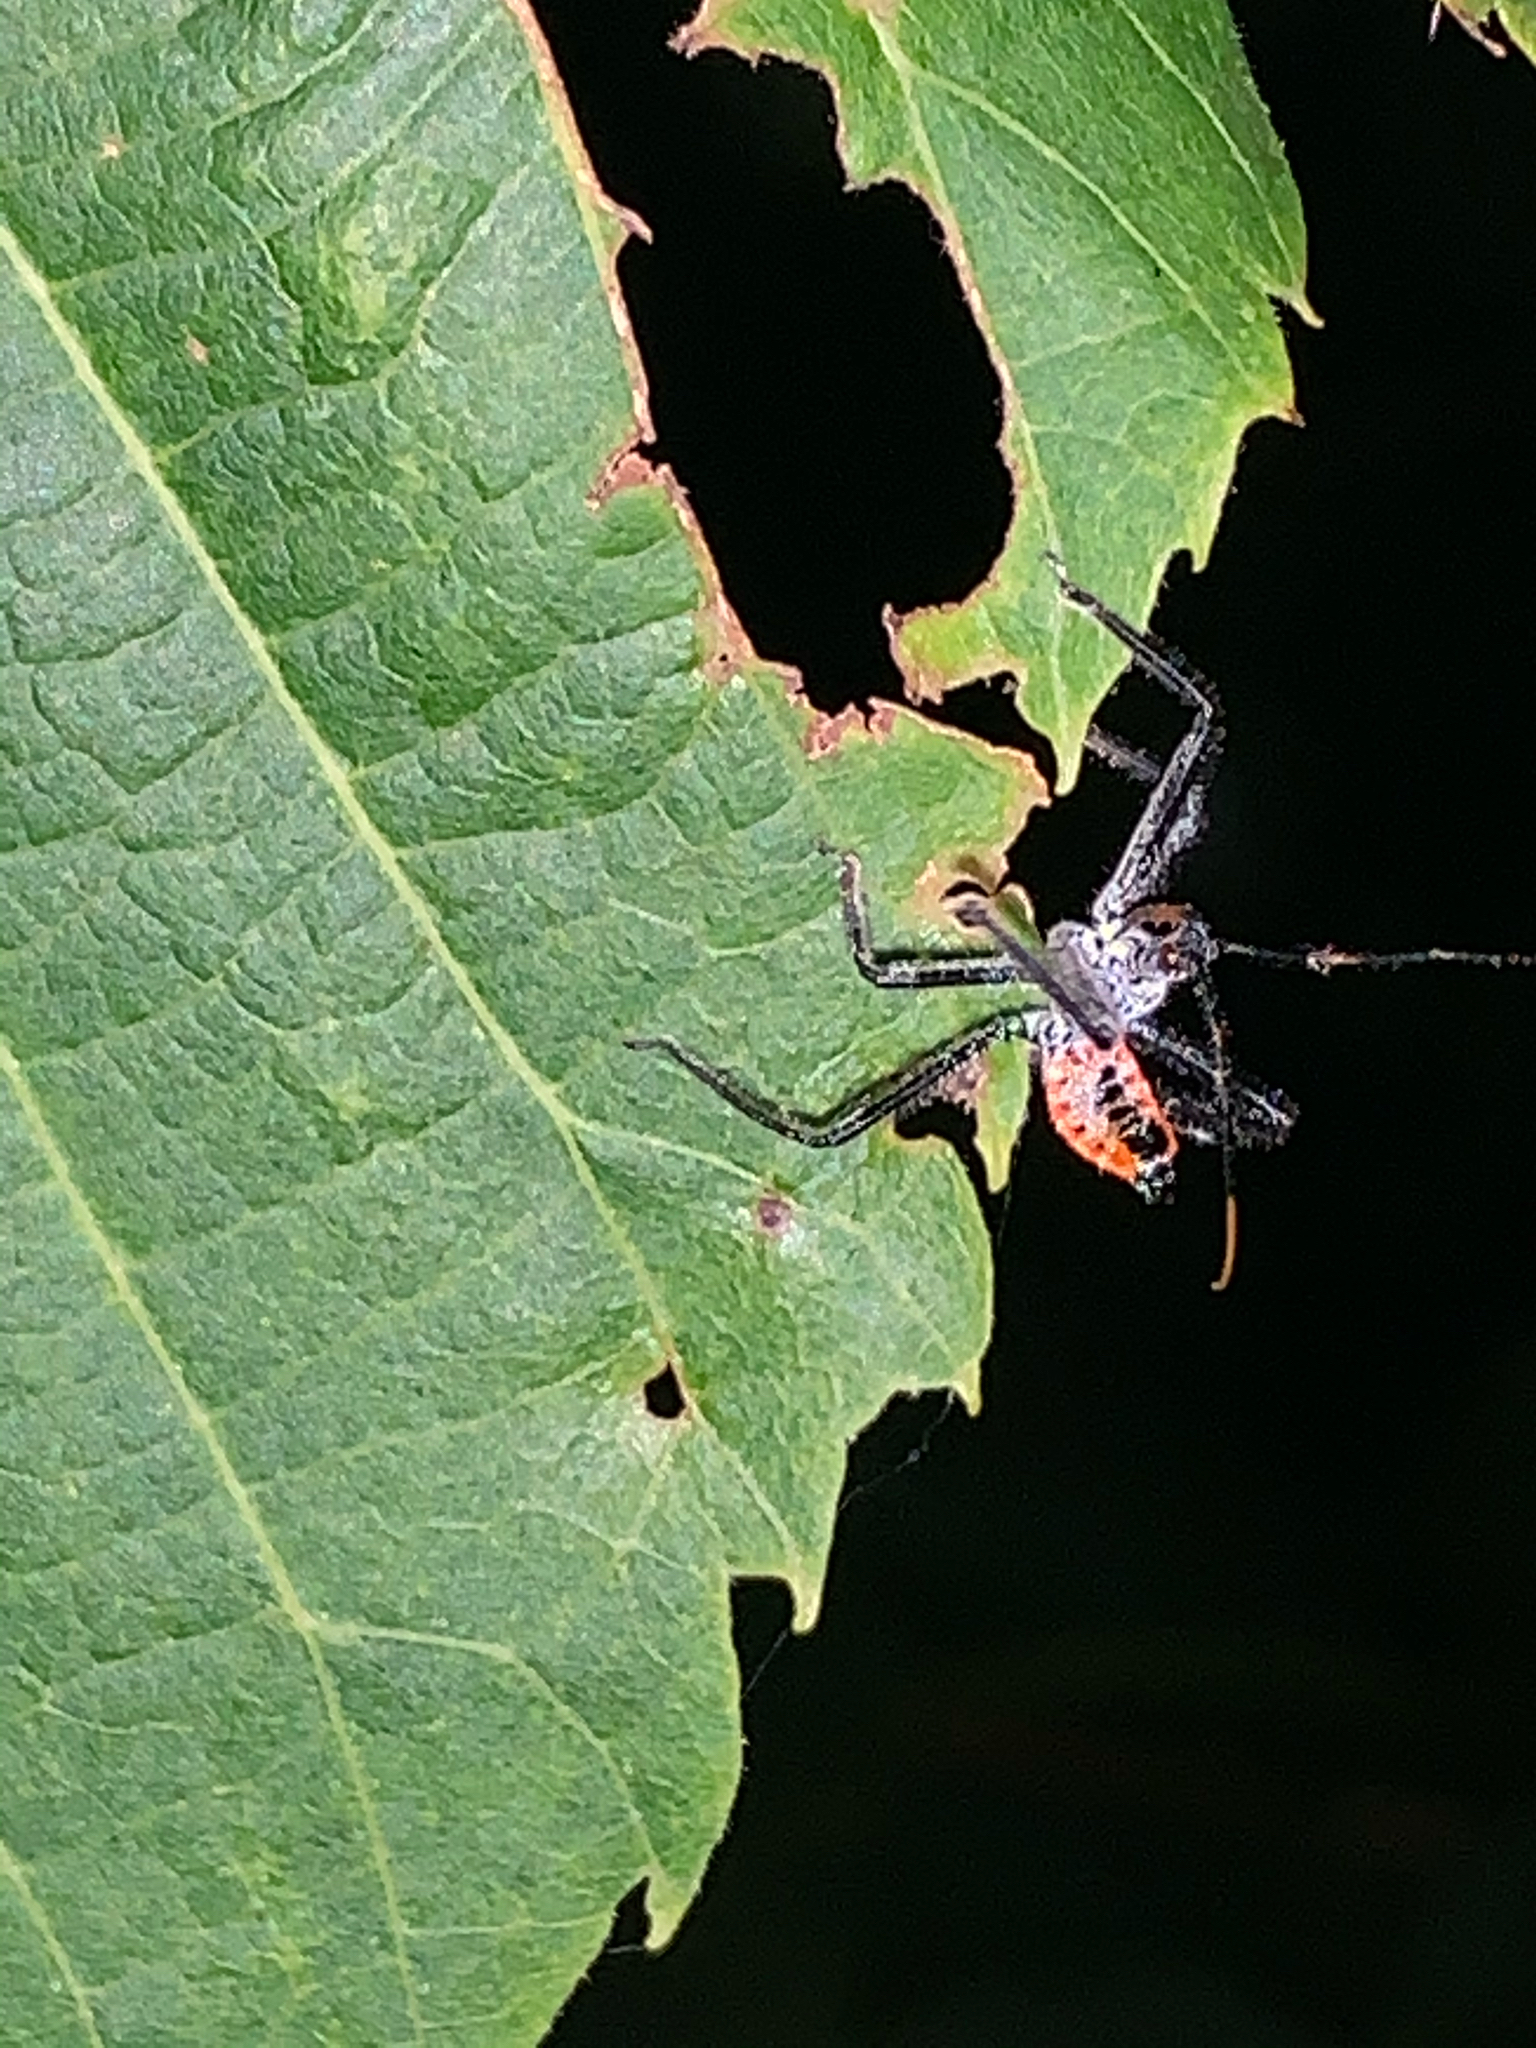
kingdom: Animalia
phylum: Arthropoda
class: Insecta
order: Hemiptera
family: Reduviidae
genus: Arilus
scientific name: Arilus cristatus
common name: North american wheel bug
